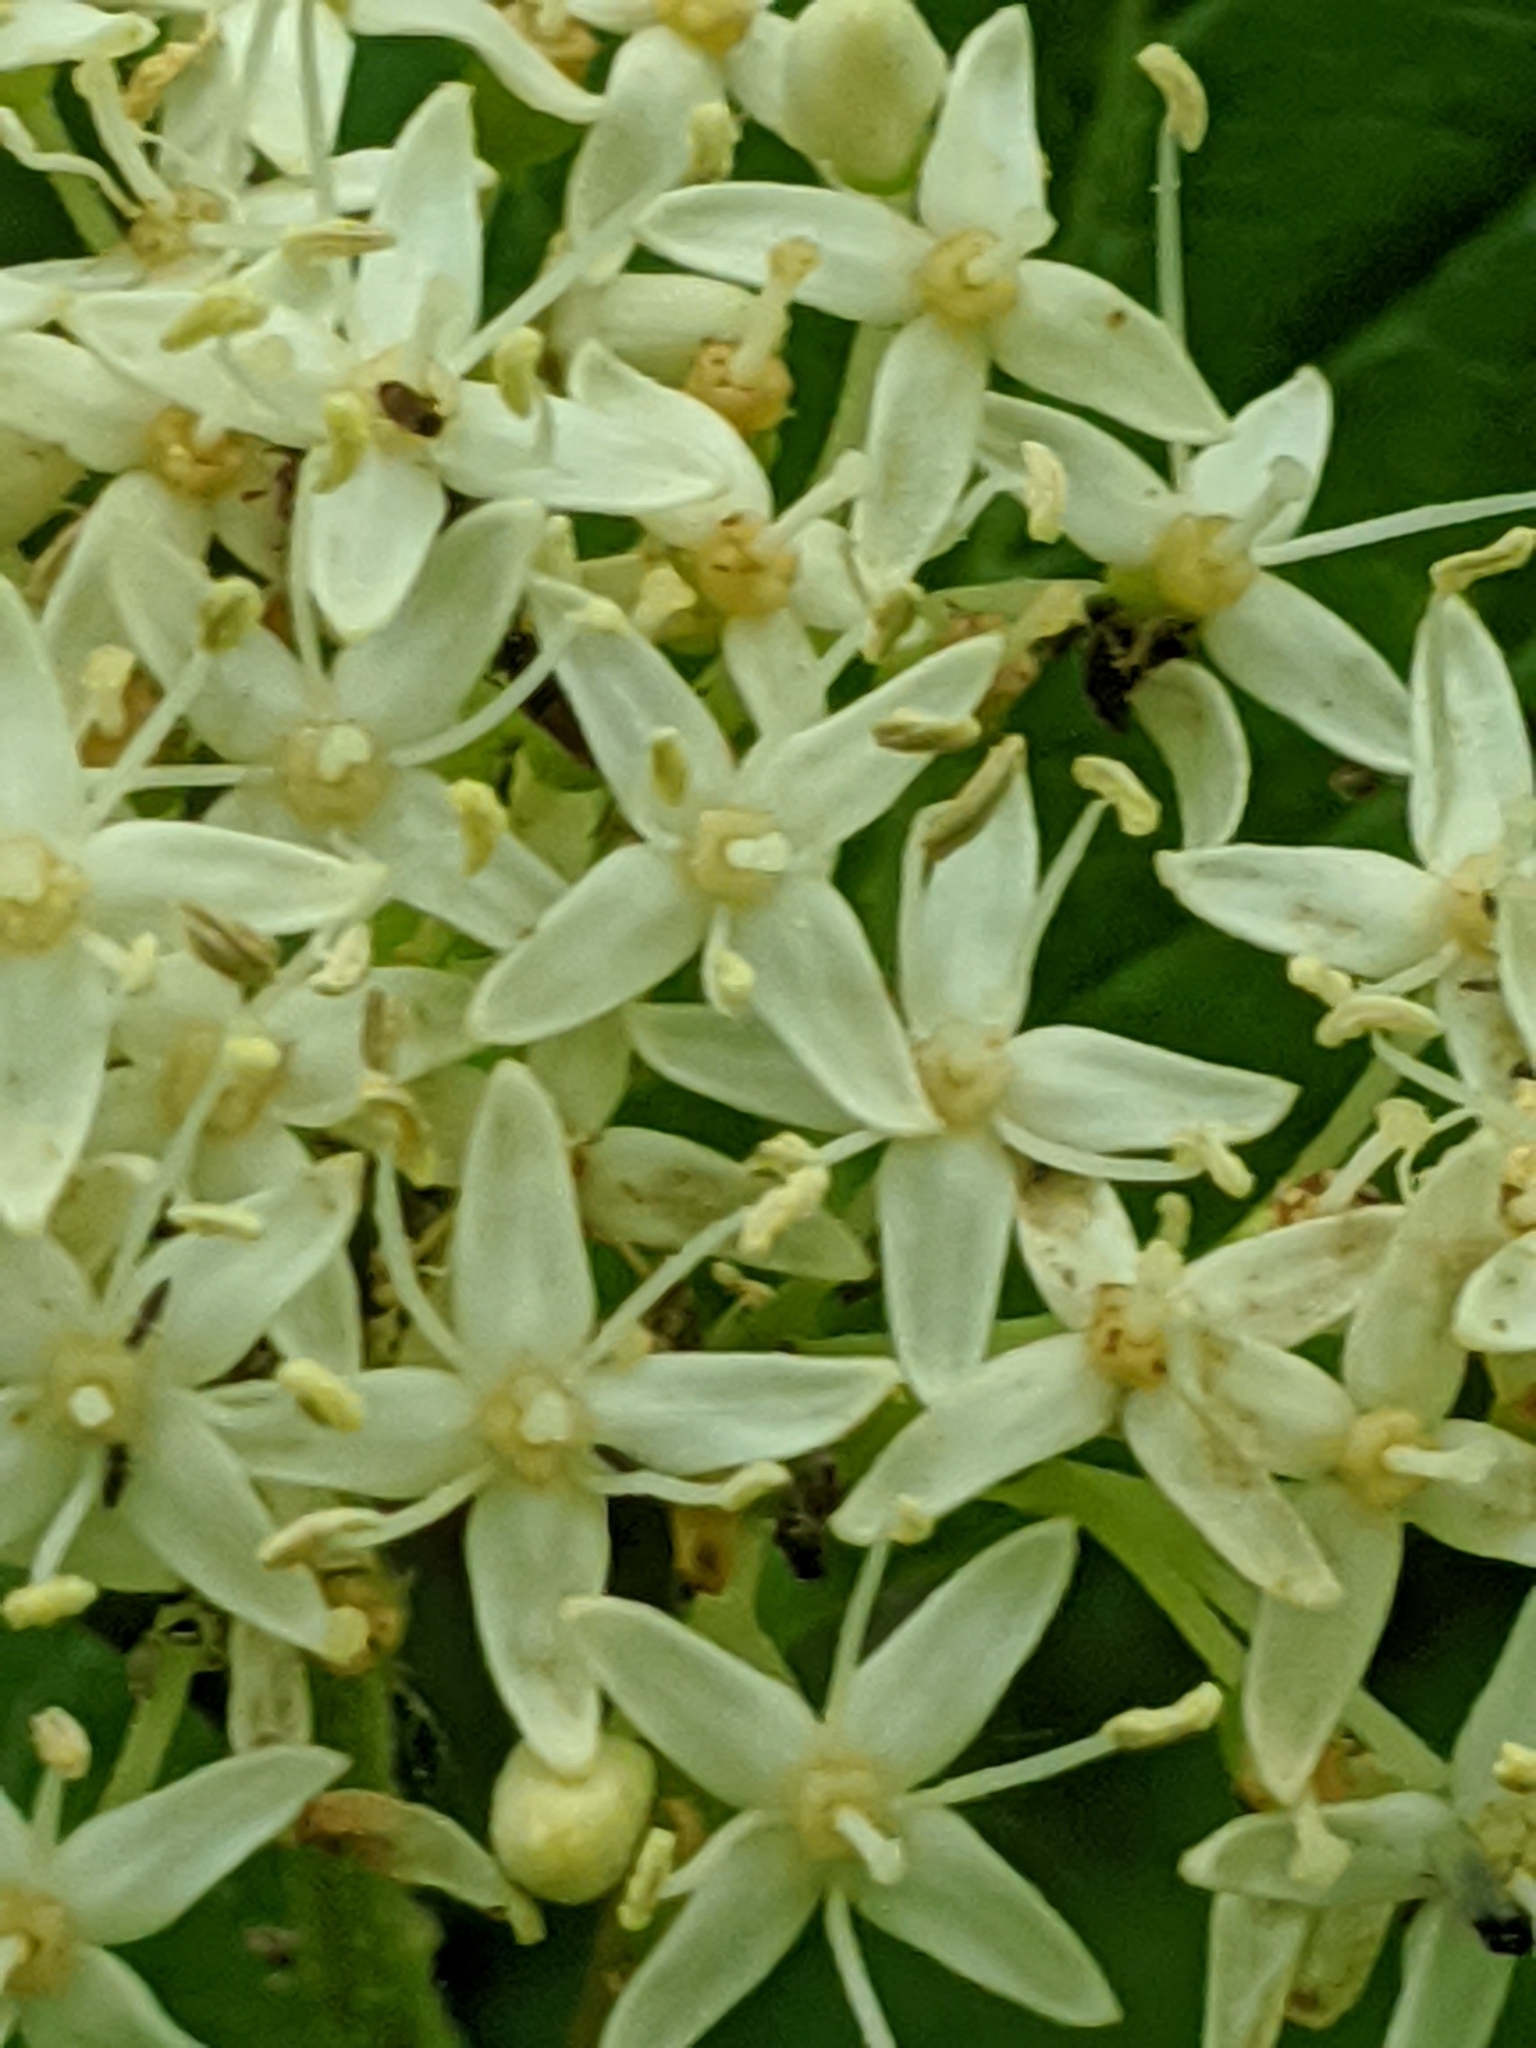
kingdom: Plantae
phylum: Tracheophyta
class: Magnoliopsida
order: Cornales
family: Cornaceae
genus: Cornus
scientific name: Cornus sericea
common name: Red-osier dogwood
